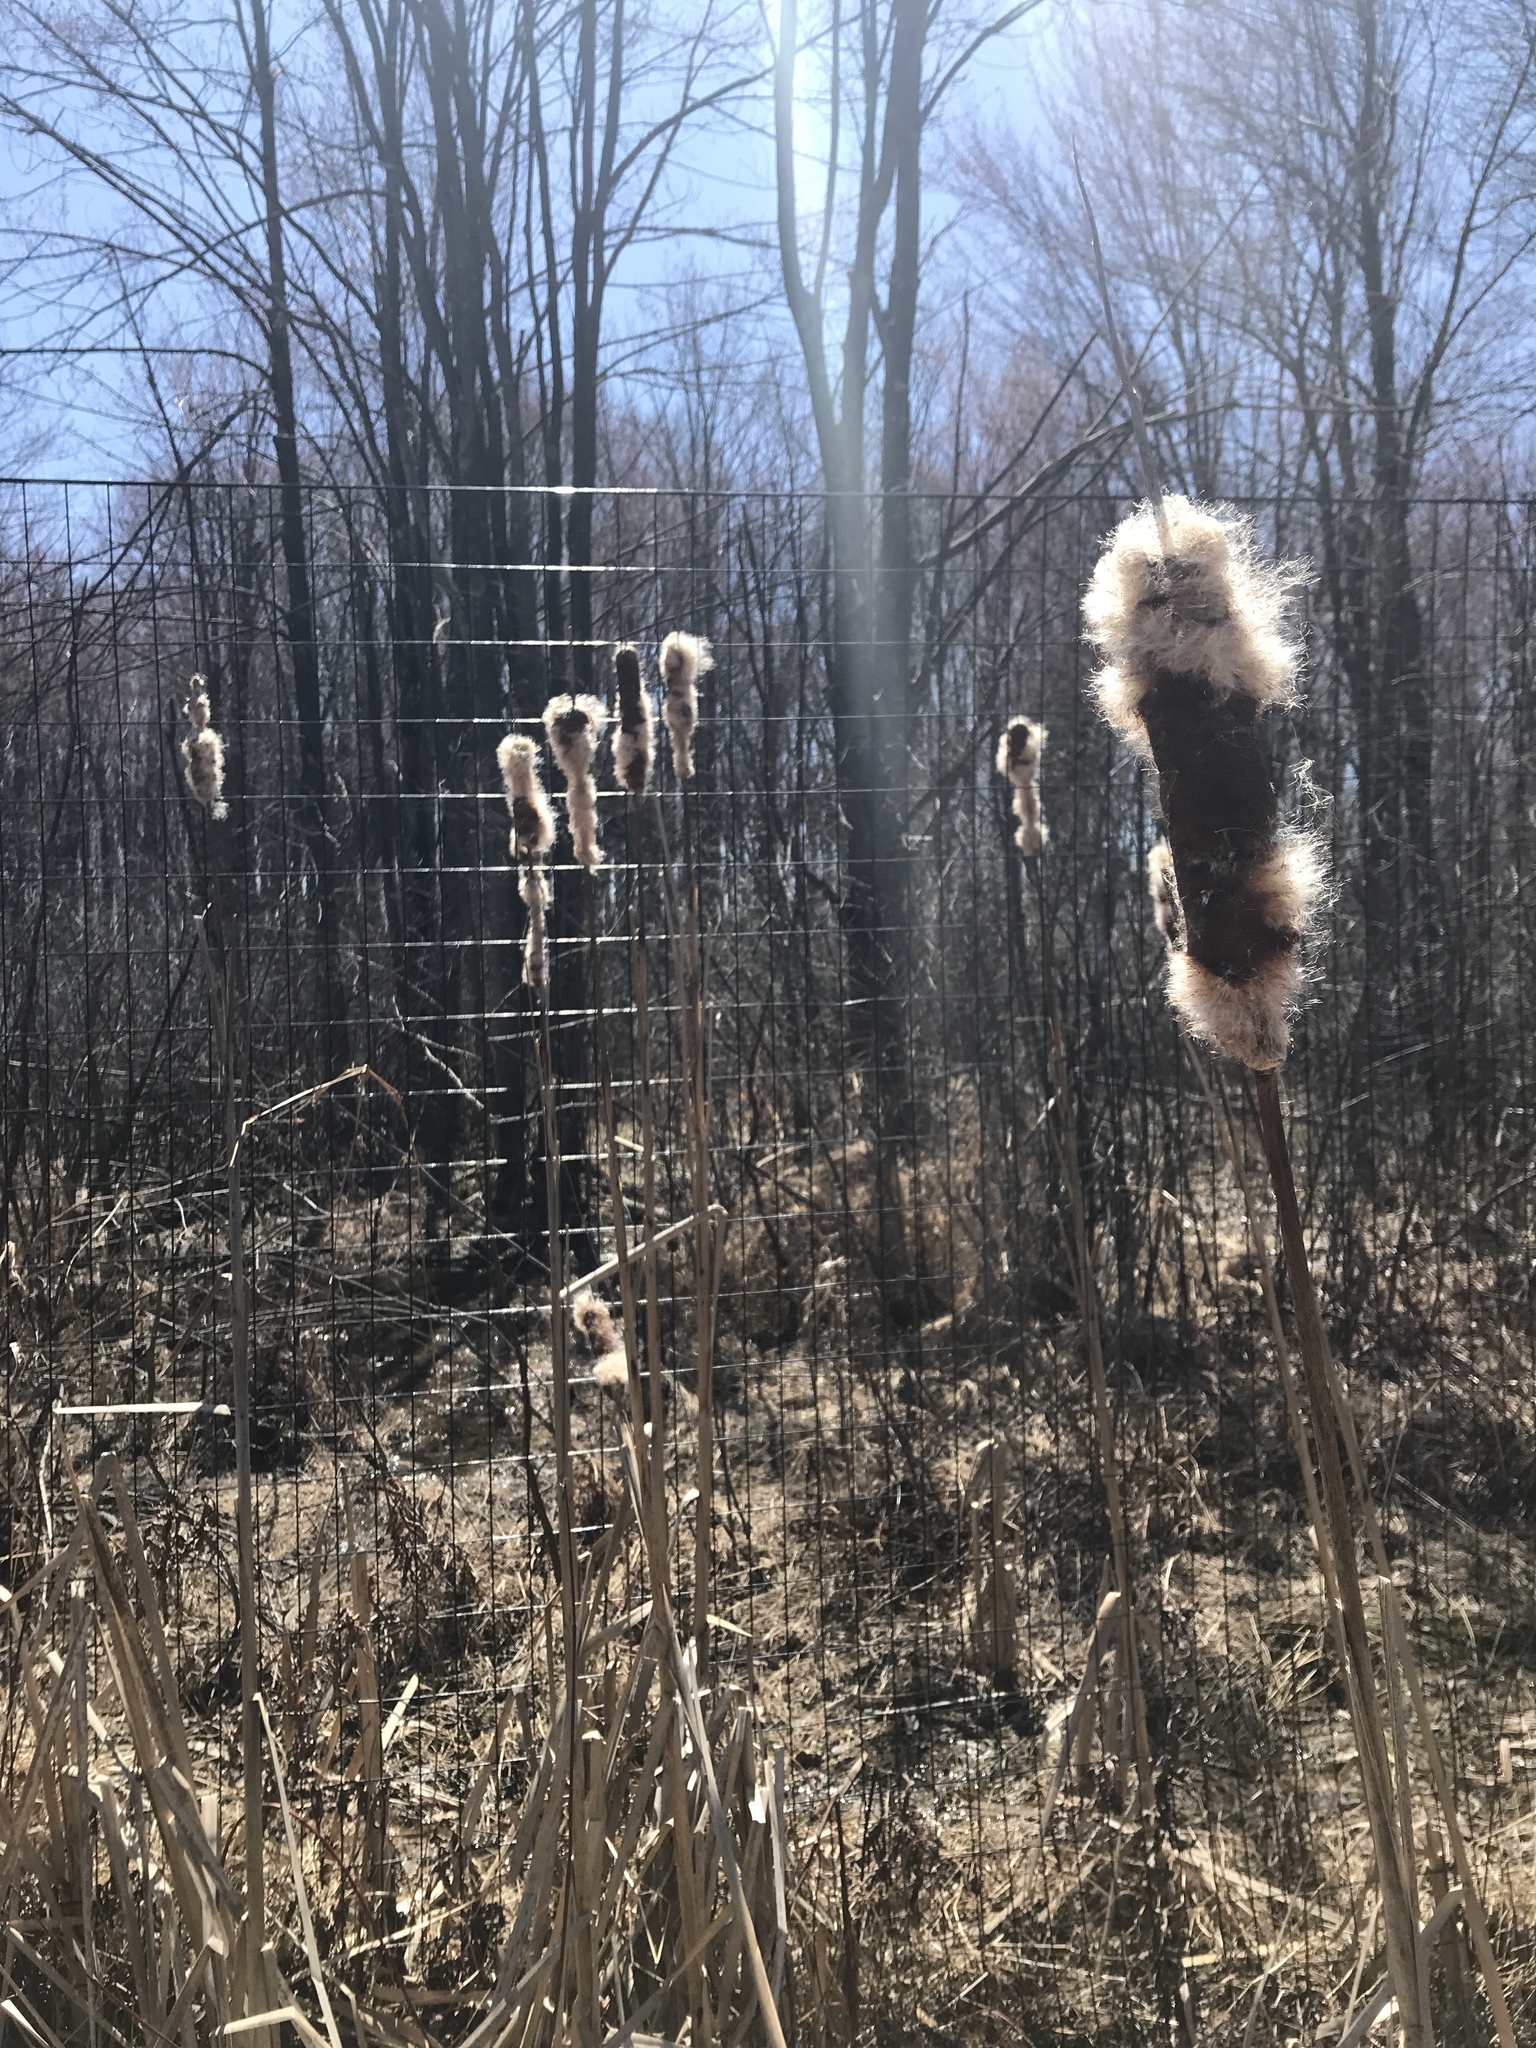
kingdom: Plantae
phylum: Tracheophyta
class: Liliopsida
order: Poales
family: Typhaceae
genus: Typha
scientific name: Typha angustifolia
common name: Lesser bulrush
